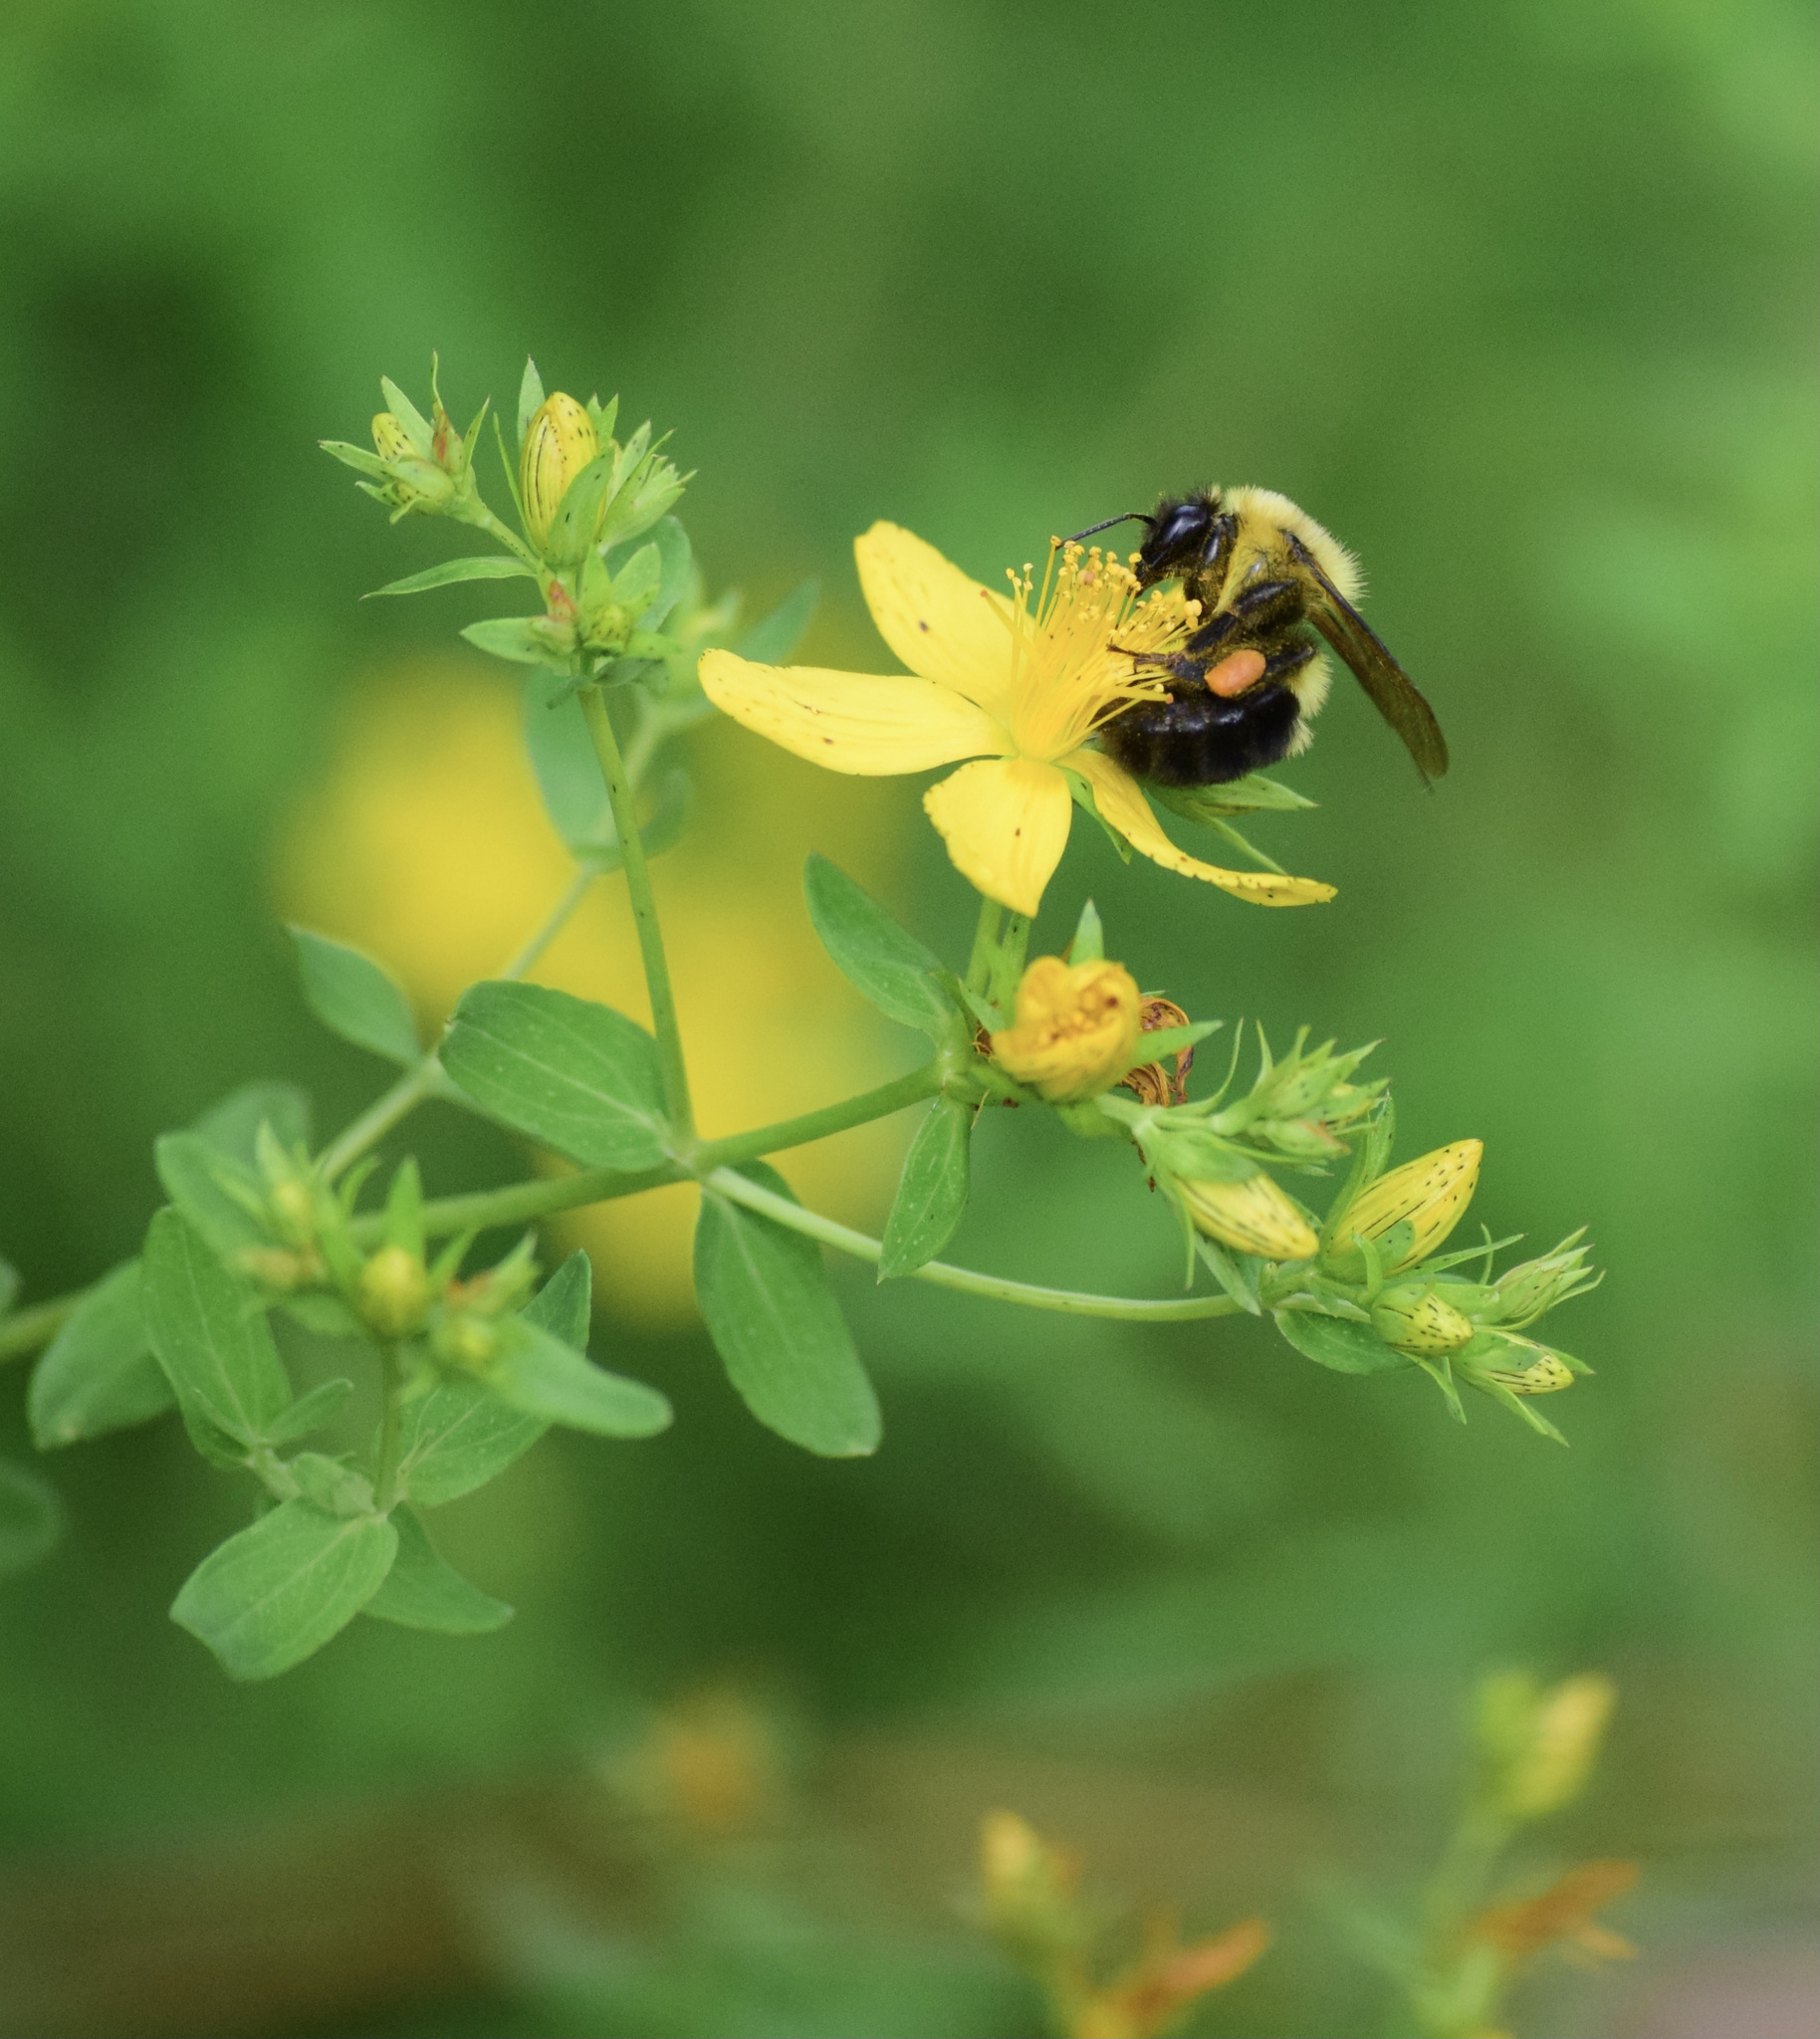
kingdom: Animalia
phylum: Arthropoda
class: Insecta
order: Hymenoptera
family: Apidae
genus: Bombus
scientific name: Bombus bimaculatus
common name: Two-spotted bumble bee
